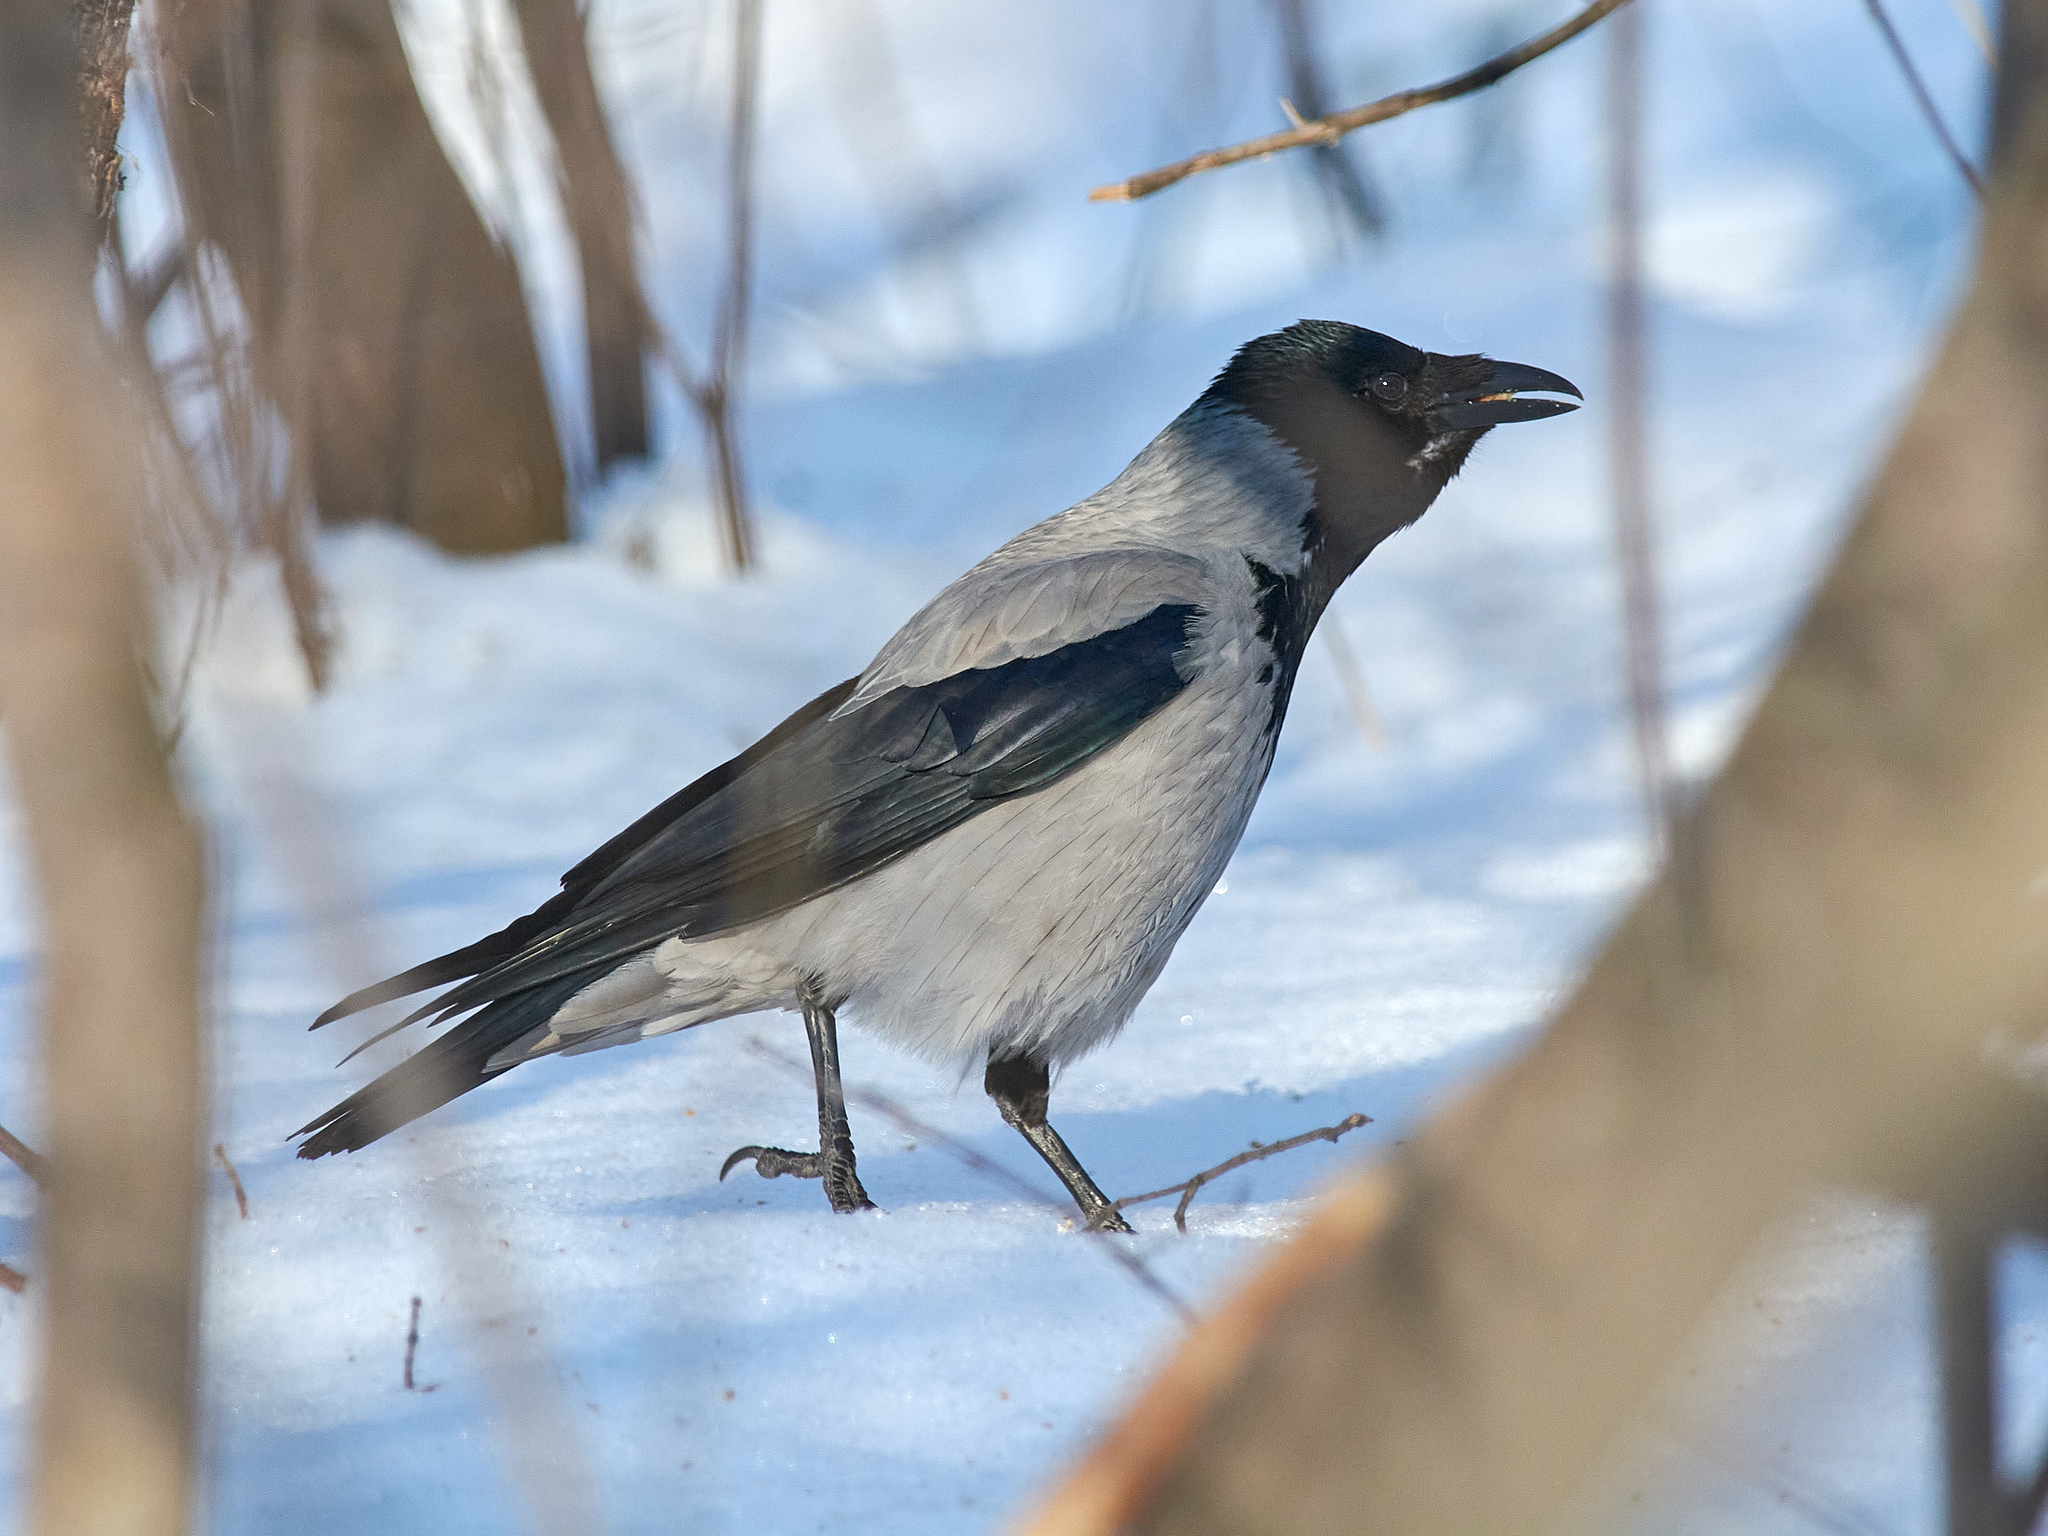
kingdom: Animalia
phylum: Chordata
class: Aves
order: Passeriformes
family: Corvidae
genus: Corvus
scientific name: Corvus cornix
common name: Hooded crow
